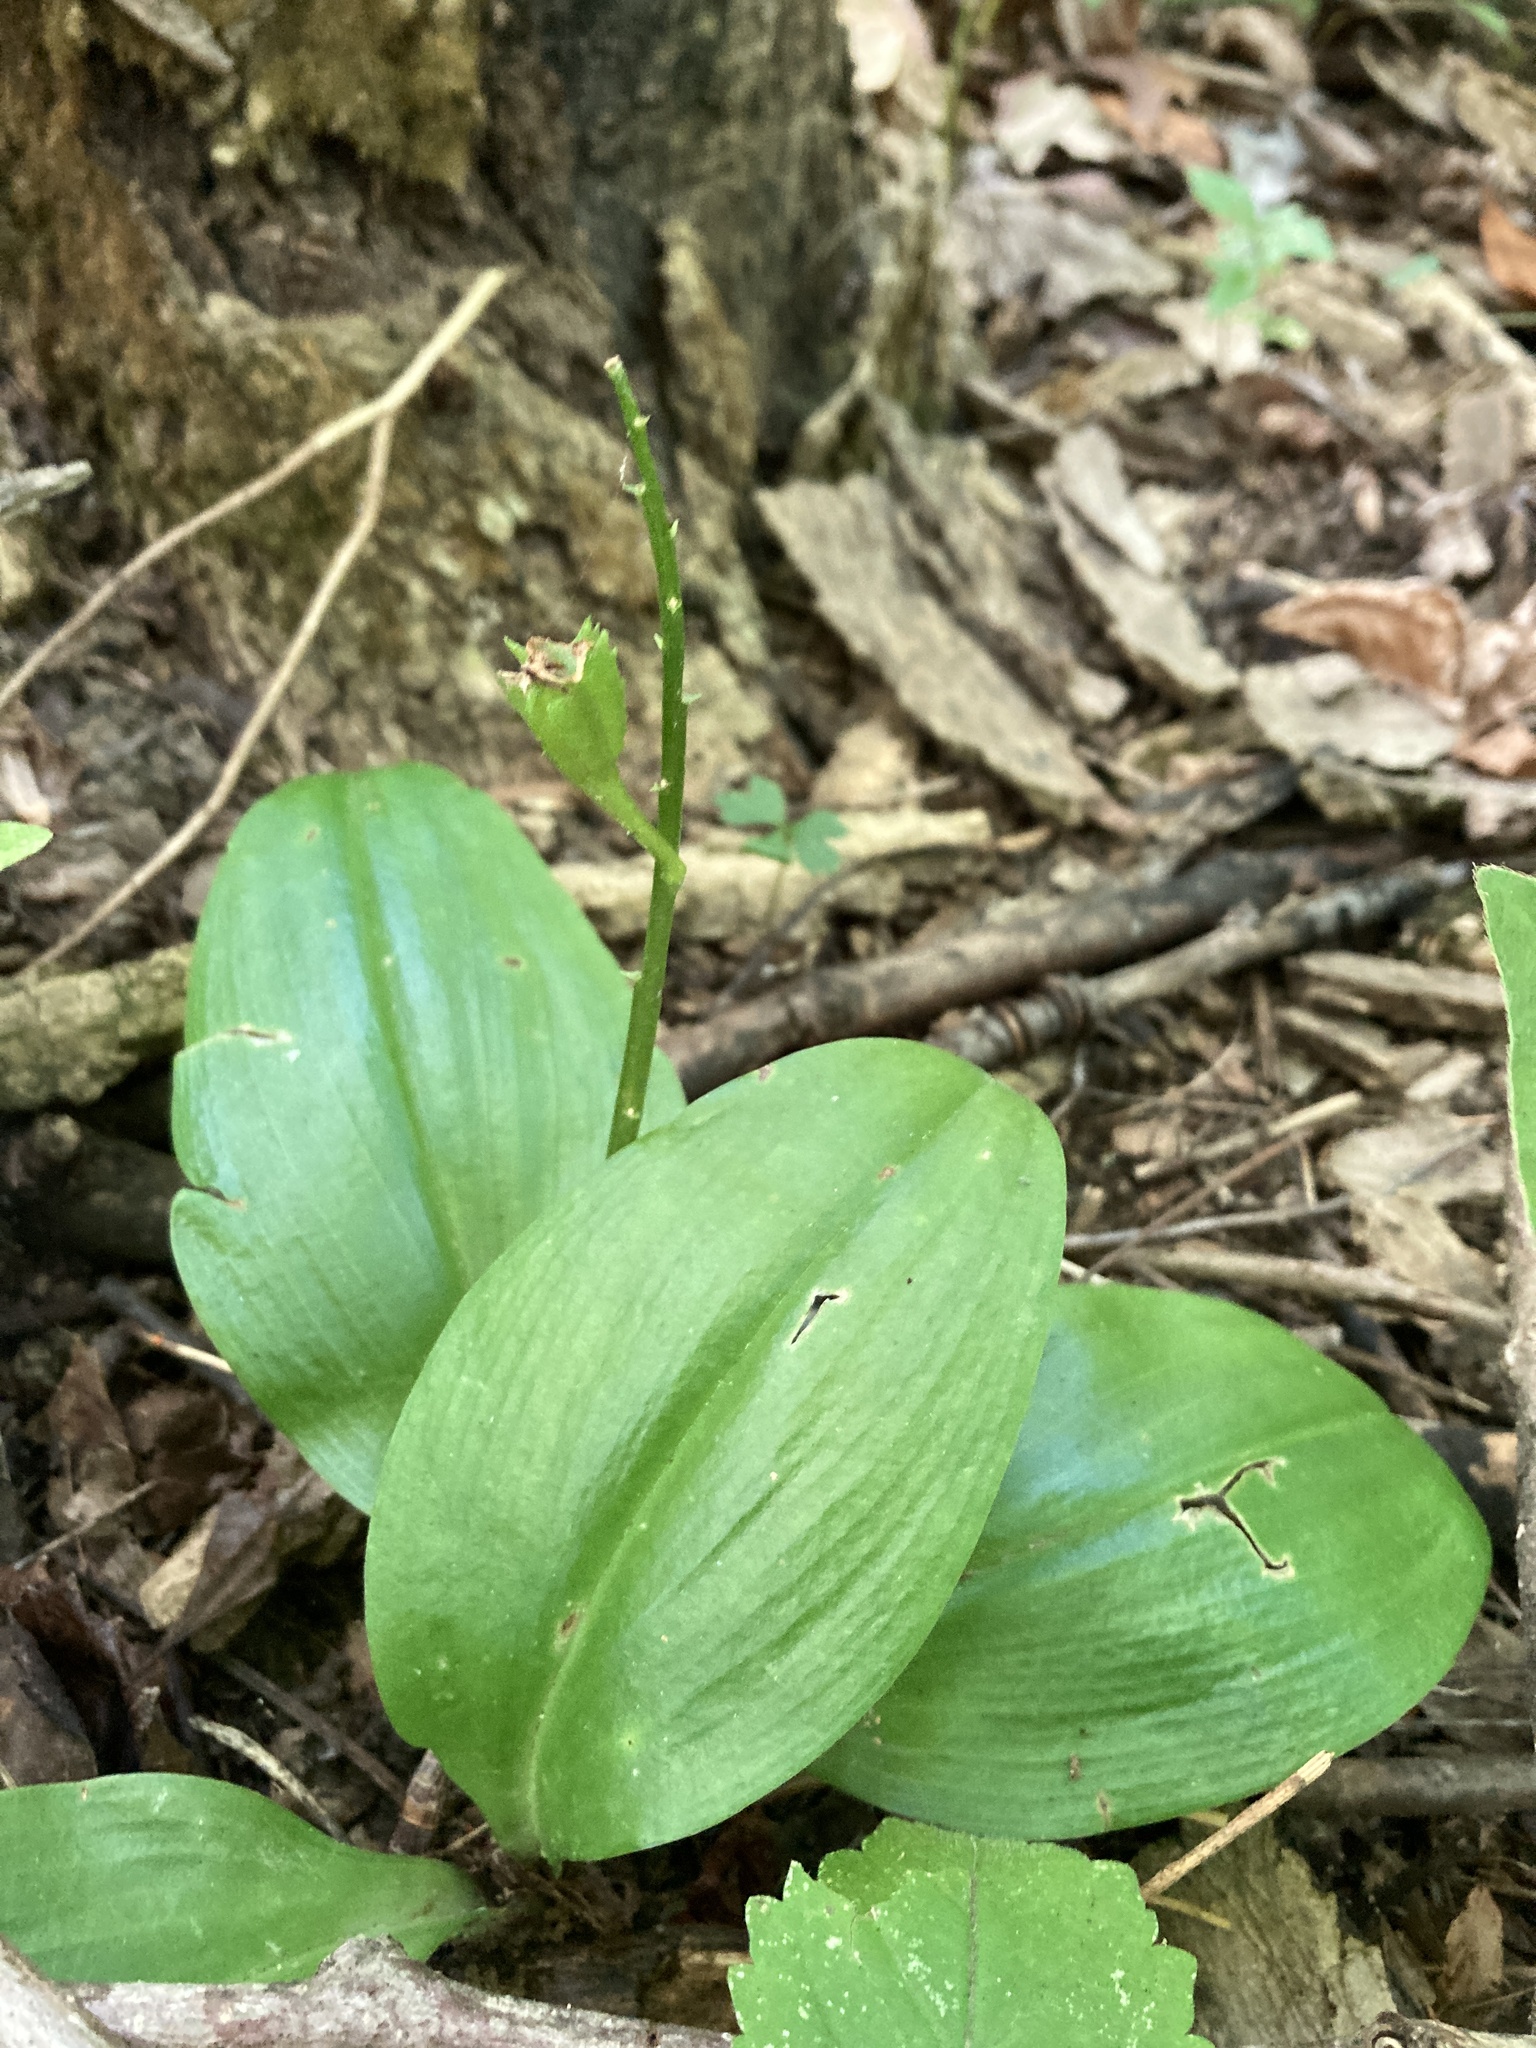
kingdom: Plantae
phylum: Tracheophyta
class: Liliopsida
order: Asparagales
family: Orchidaceae
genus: Liparis
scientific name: Liparis liliifolia
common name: Brown wide-lip orchid
